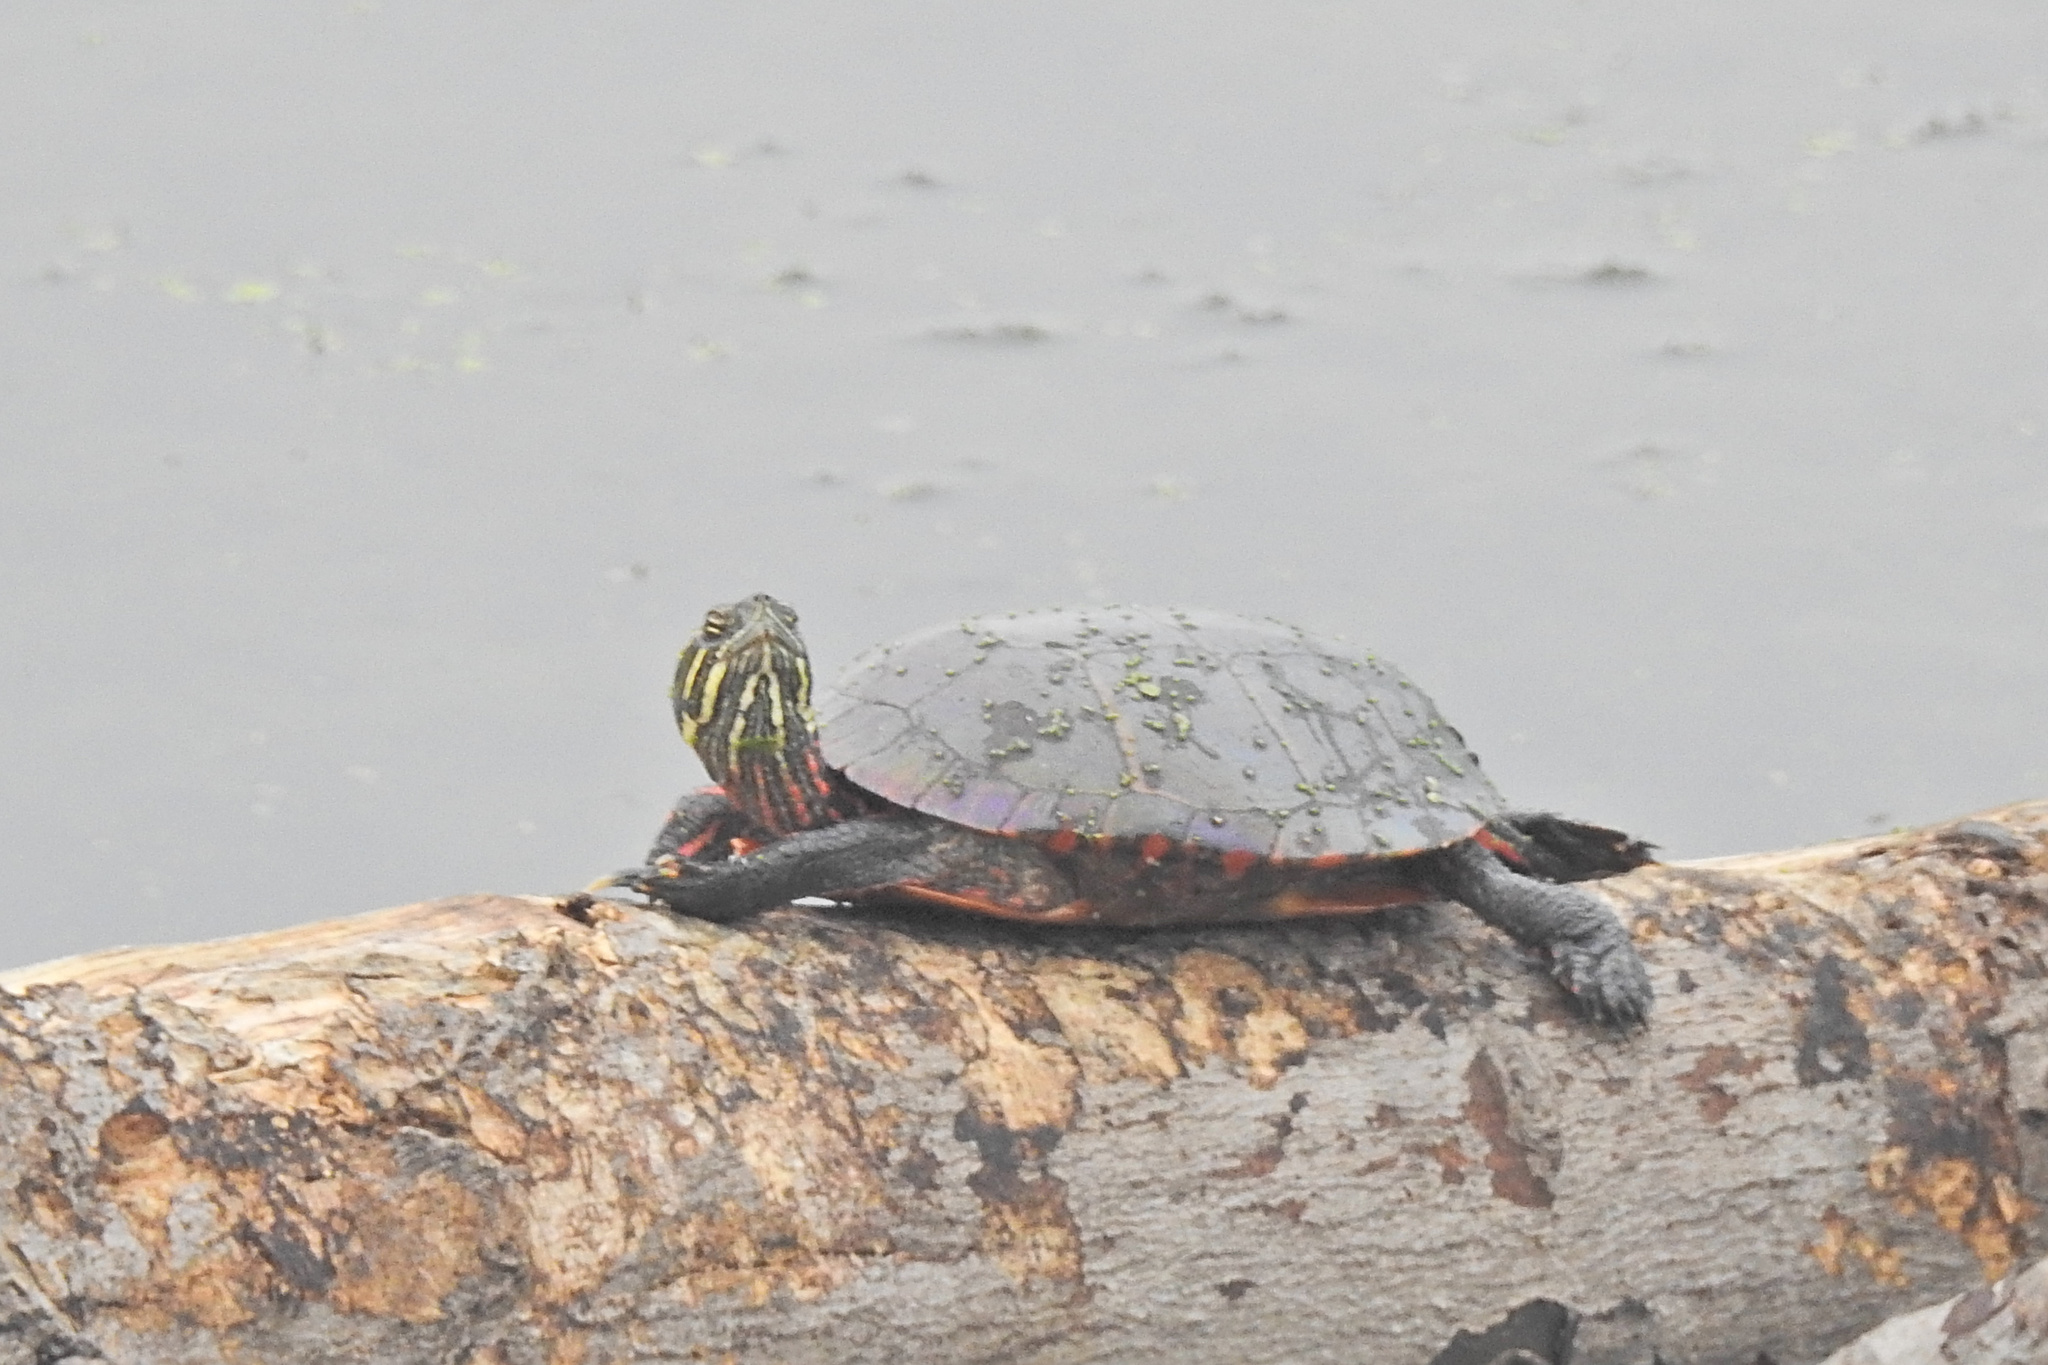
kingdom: Animalia
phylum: Chordata
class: Testudines
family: Emydidae
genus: Chrysemys
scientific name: Chrysemys picta
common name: Painted turtle
